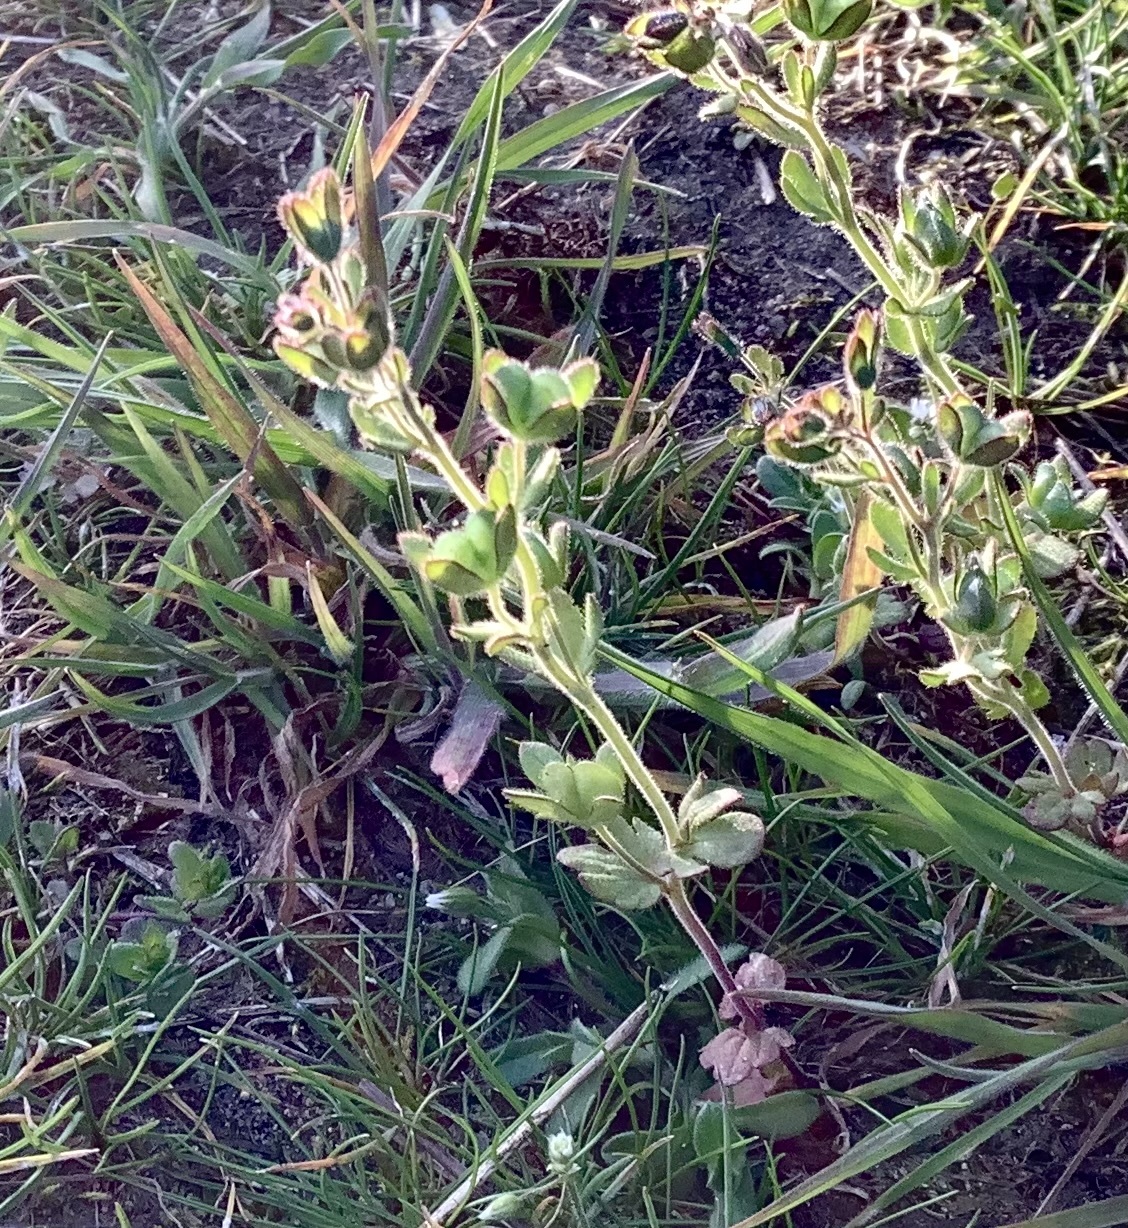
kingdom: Plantae
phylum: Tracheophyta
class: Magnoliopsida
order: Lamiales
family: Plantaginaceae
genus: Veronica
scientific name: Veronica triphyllos
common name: Fingered speedwell
